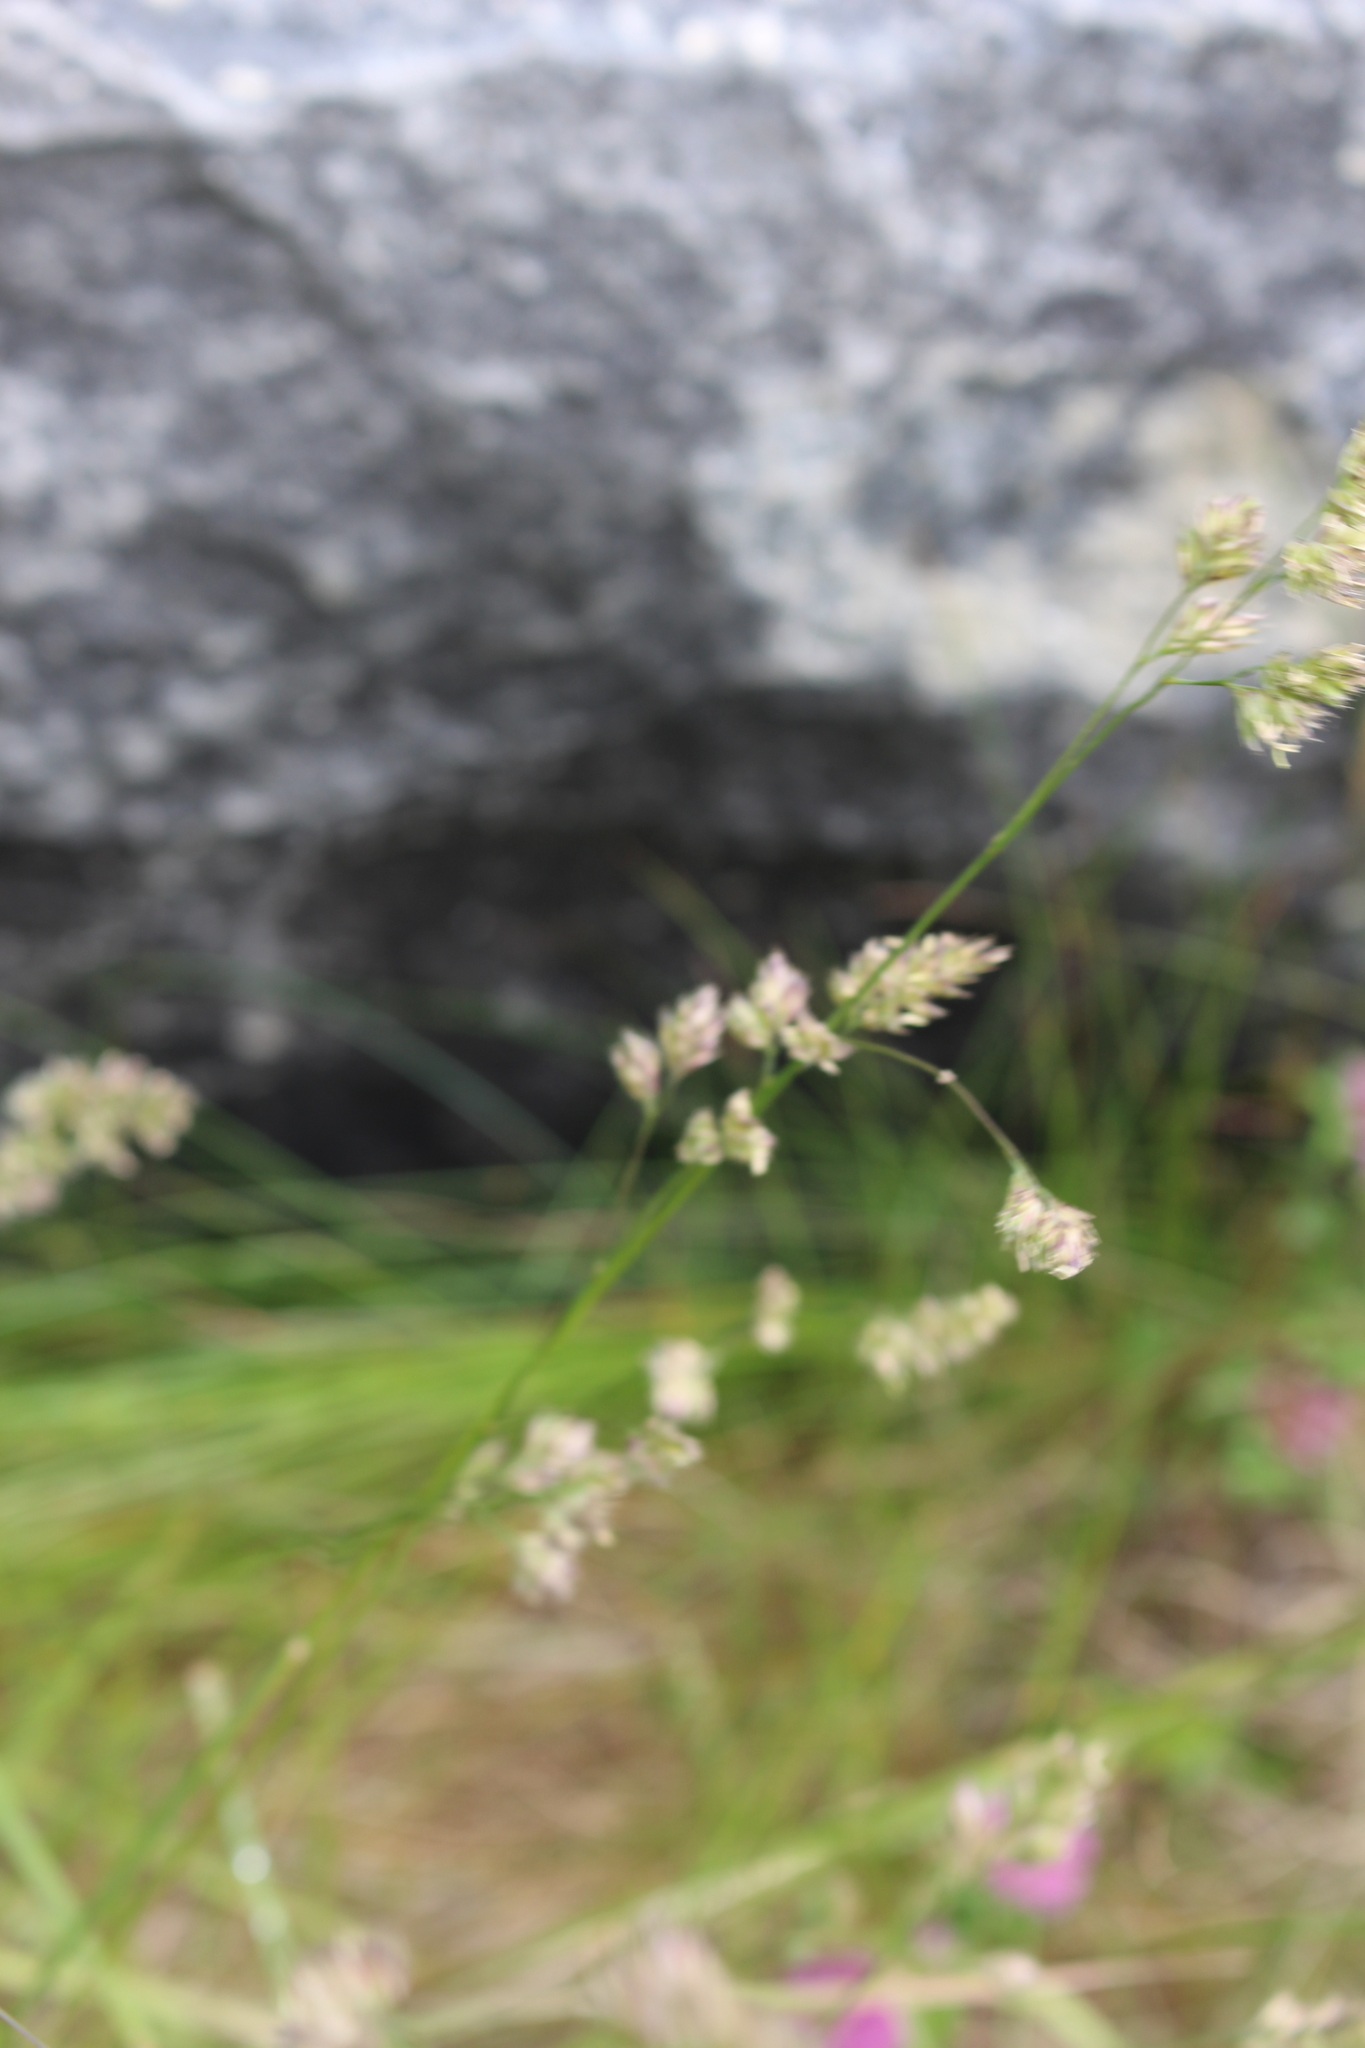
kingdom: Plantae
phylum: Tracheophyta
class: Liliopsida
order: Poales
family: Poaceae
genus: Dactylis
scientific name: Dactylis glomerata
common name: Orchardgrass
